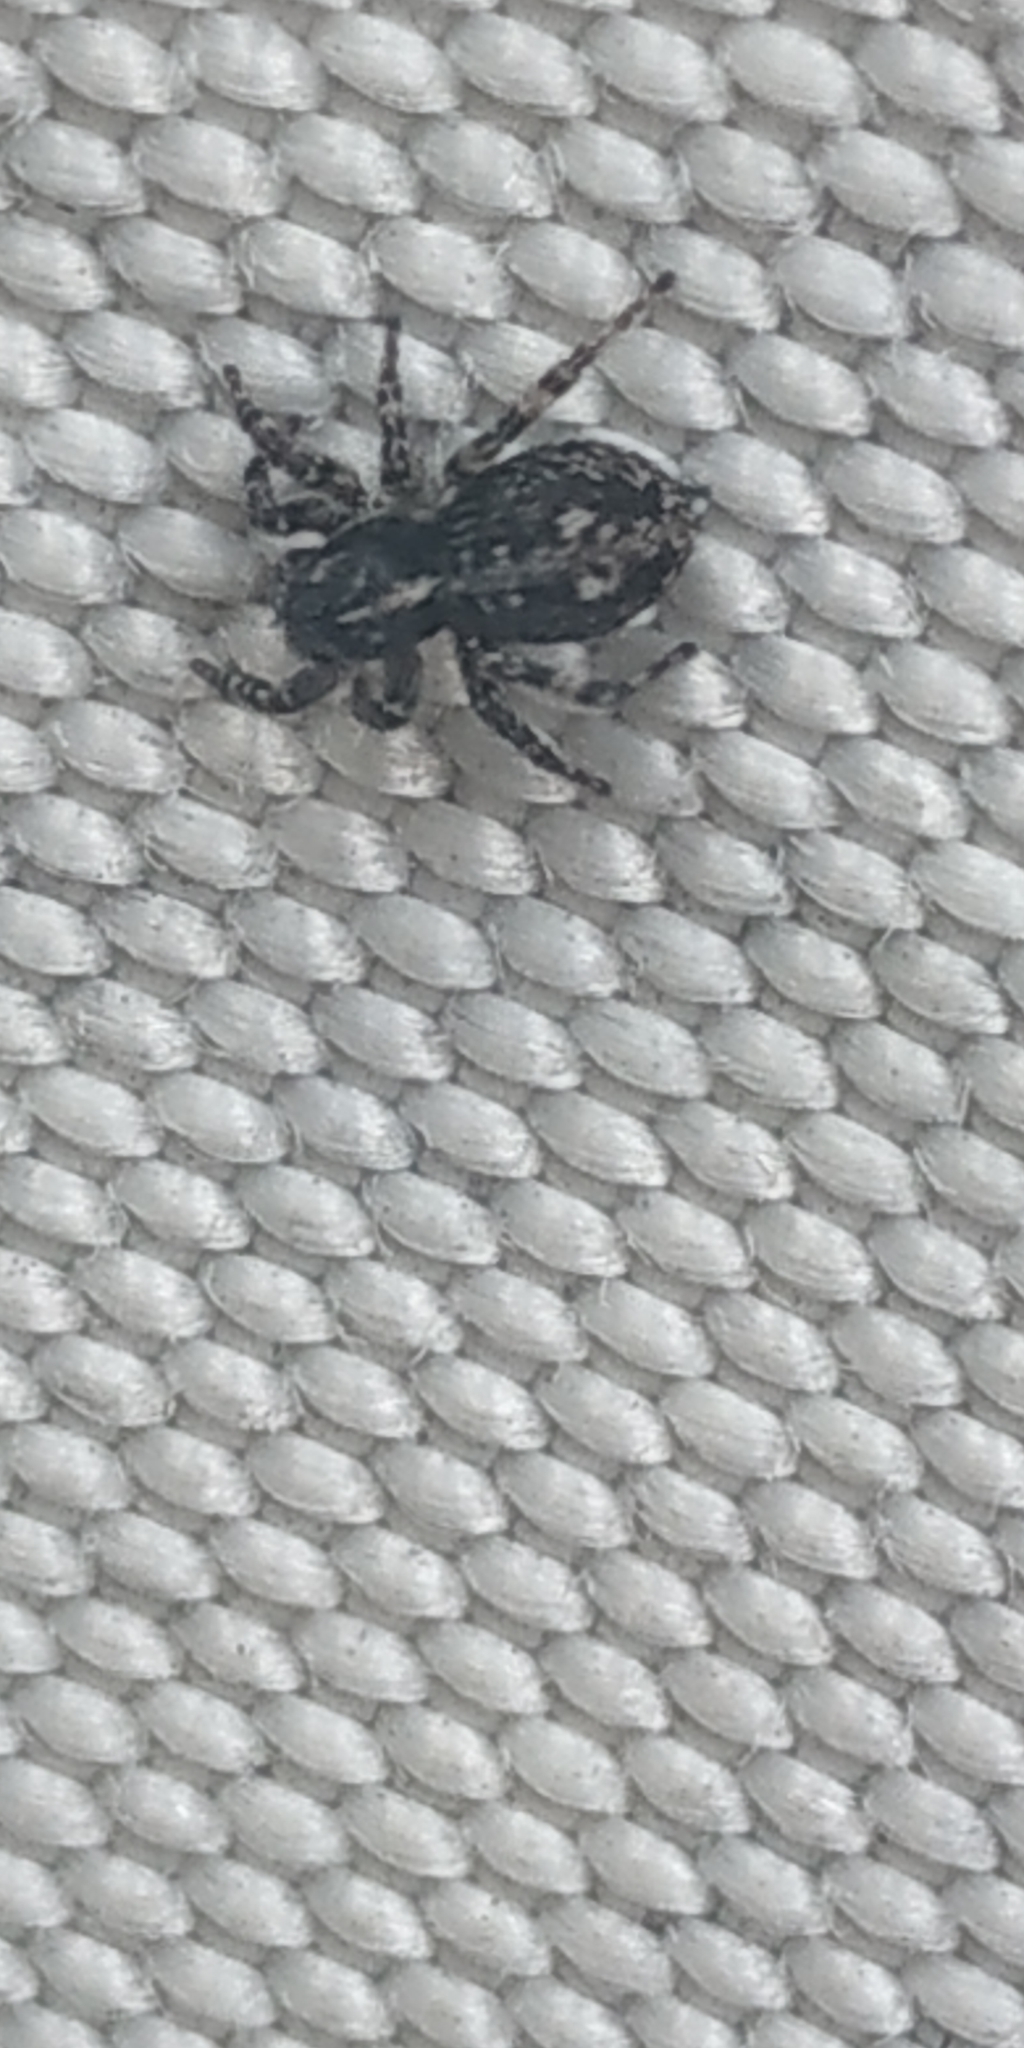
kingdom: Animalia
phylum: Arthropoda
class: Arachnida
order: Araneae
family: Salticidae
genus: Attulus
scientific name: Attulus terebratus
